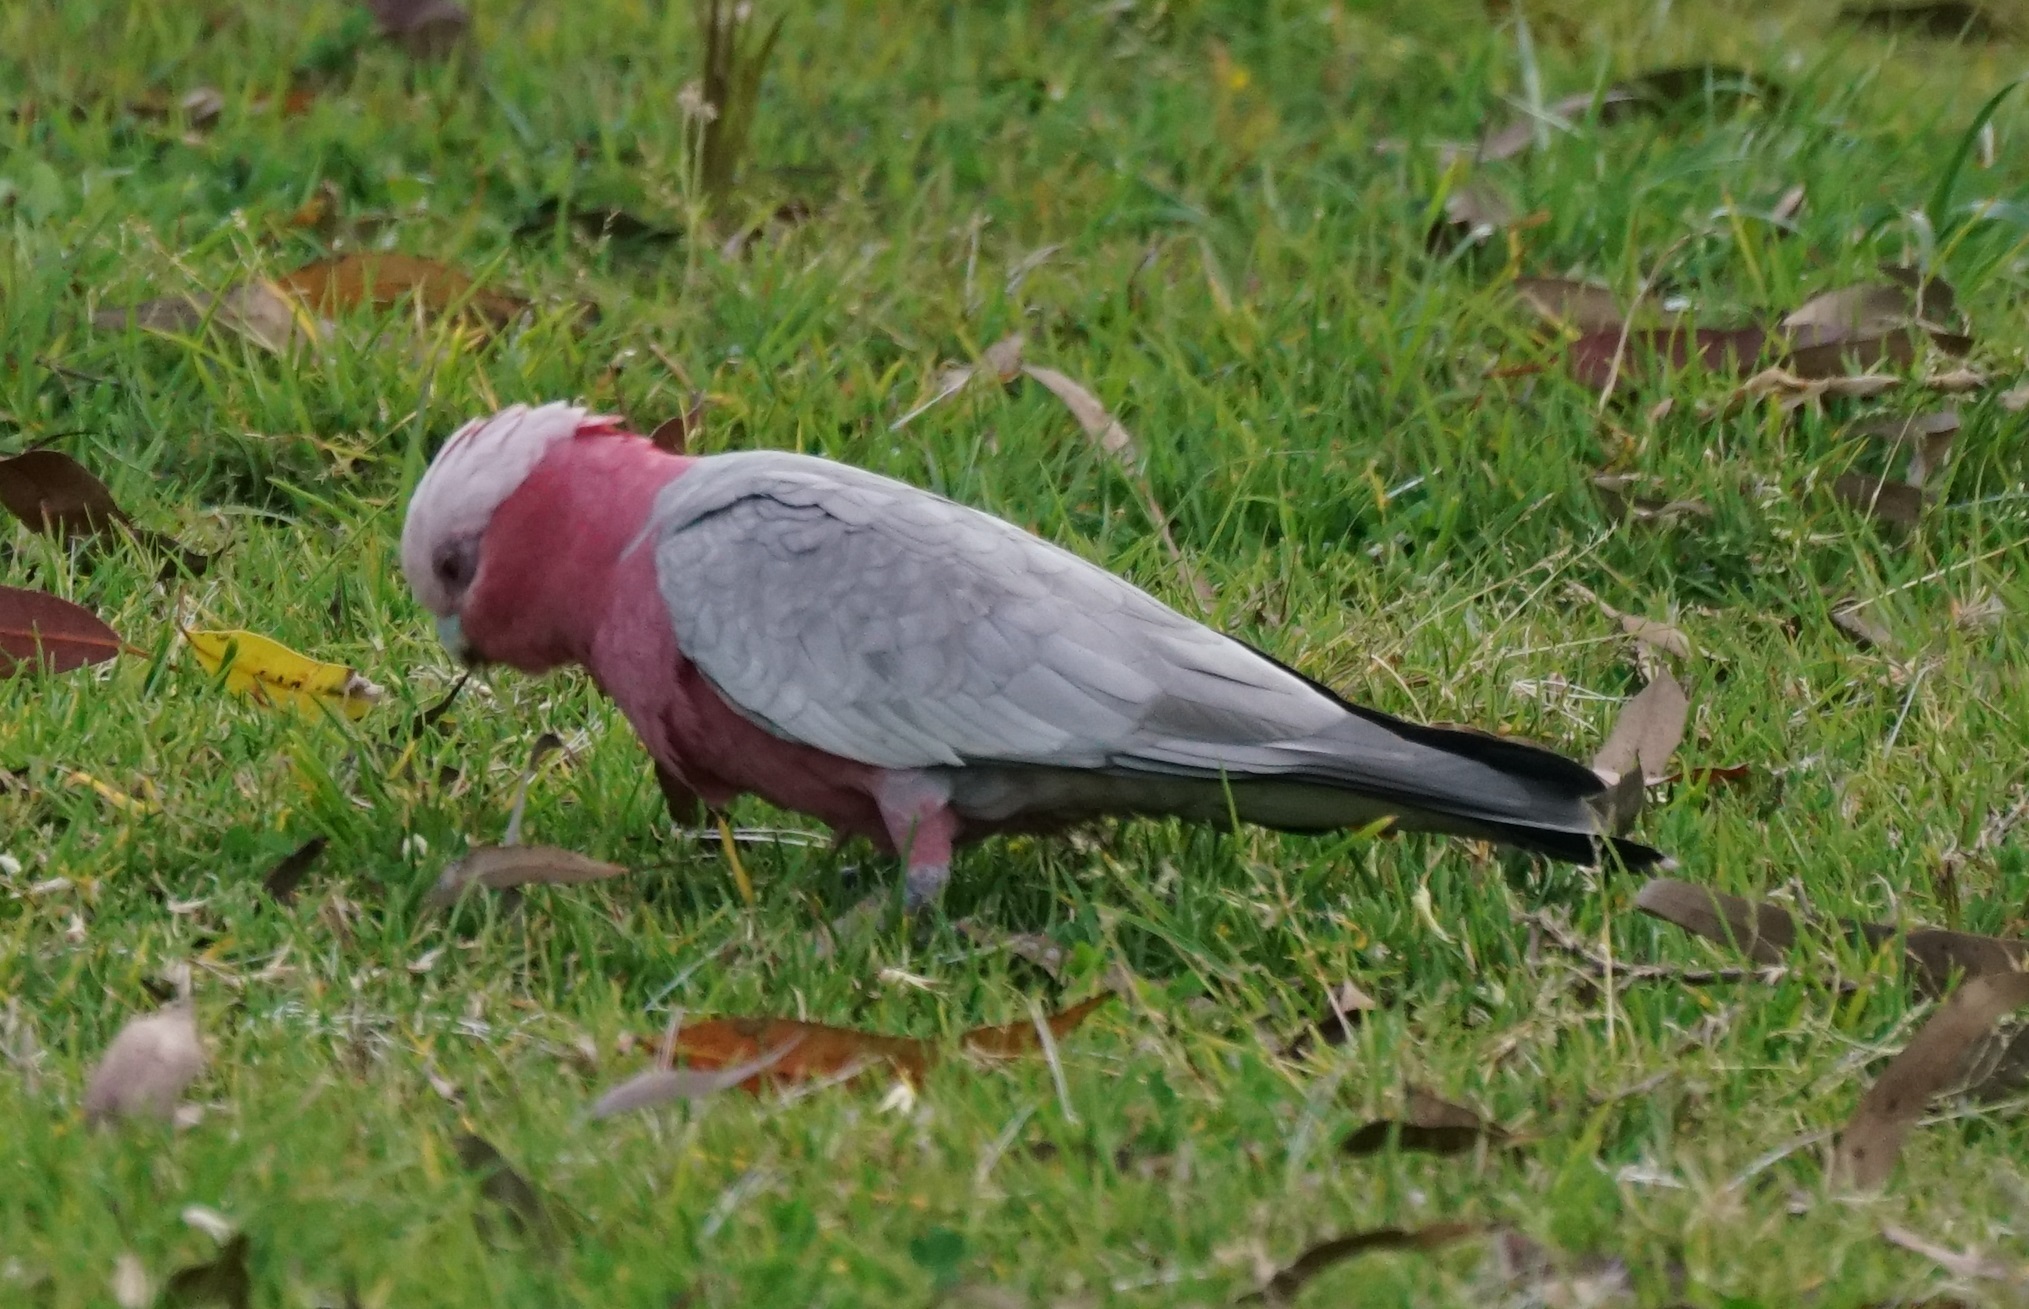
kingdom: Animalia
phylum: Chordata
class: Aves
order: Psittaciformes
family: Psittacidae
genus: Eolophus
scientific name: Eolophus roseicapilla
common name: Galah
